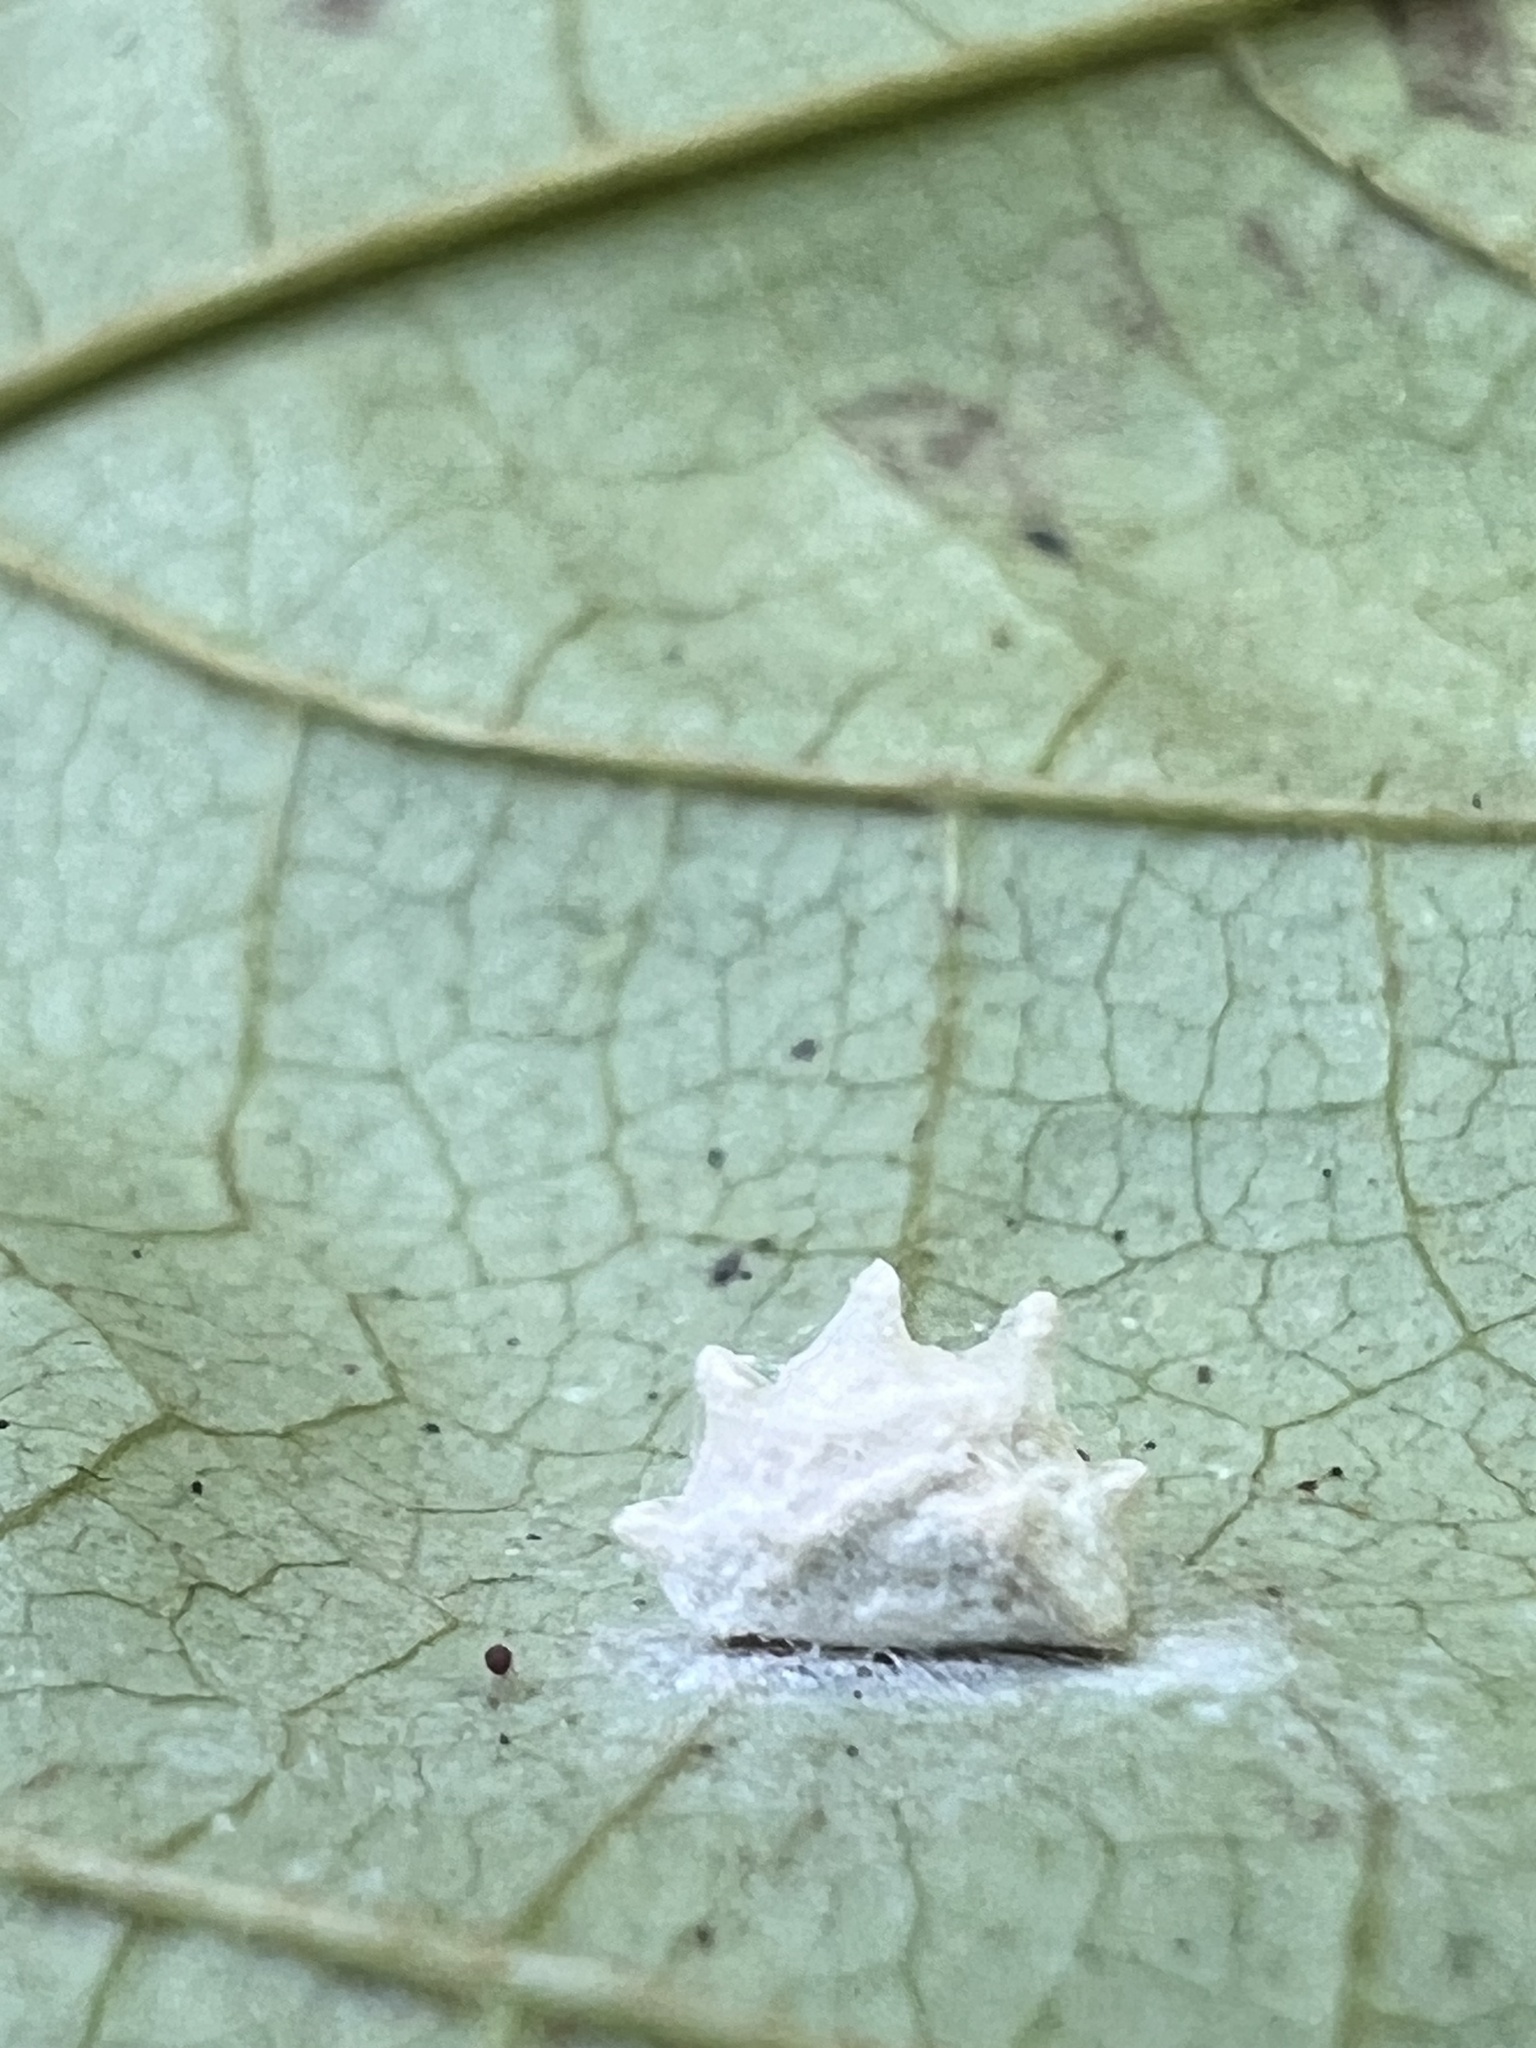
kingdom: Animalia
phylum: Arthropoda
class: Insecta
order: Lepidoptera
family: Epipyropidae
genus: Fulgoraecia
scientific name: Fulgoraecia exigua
